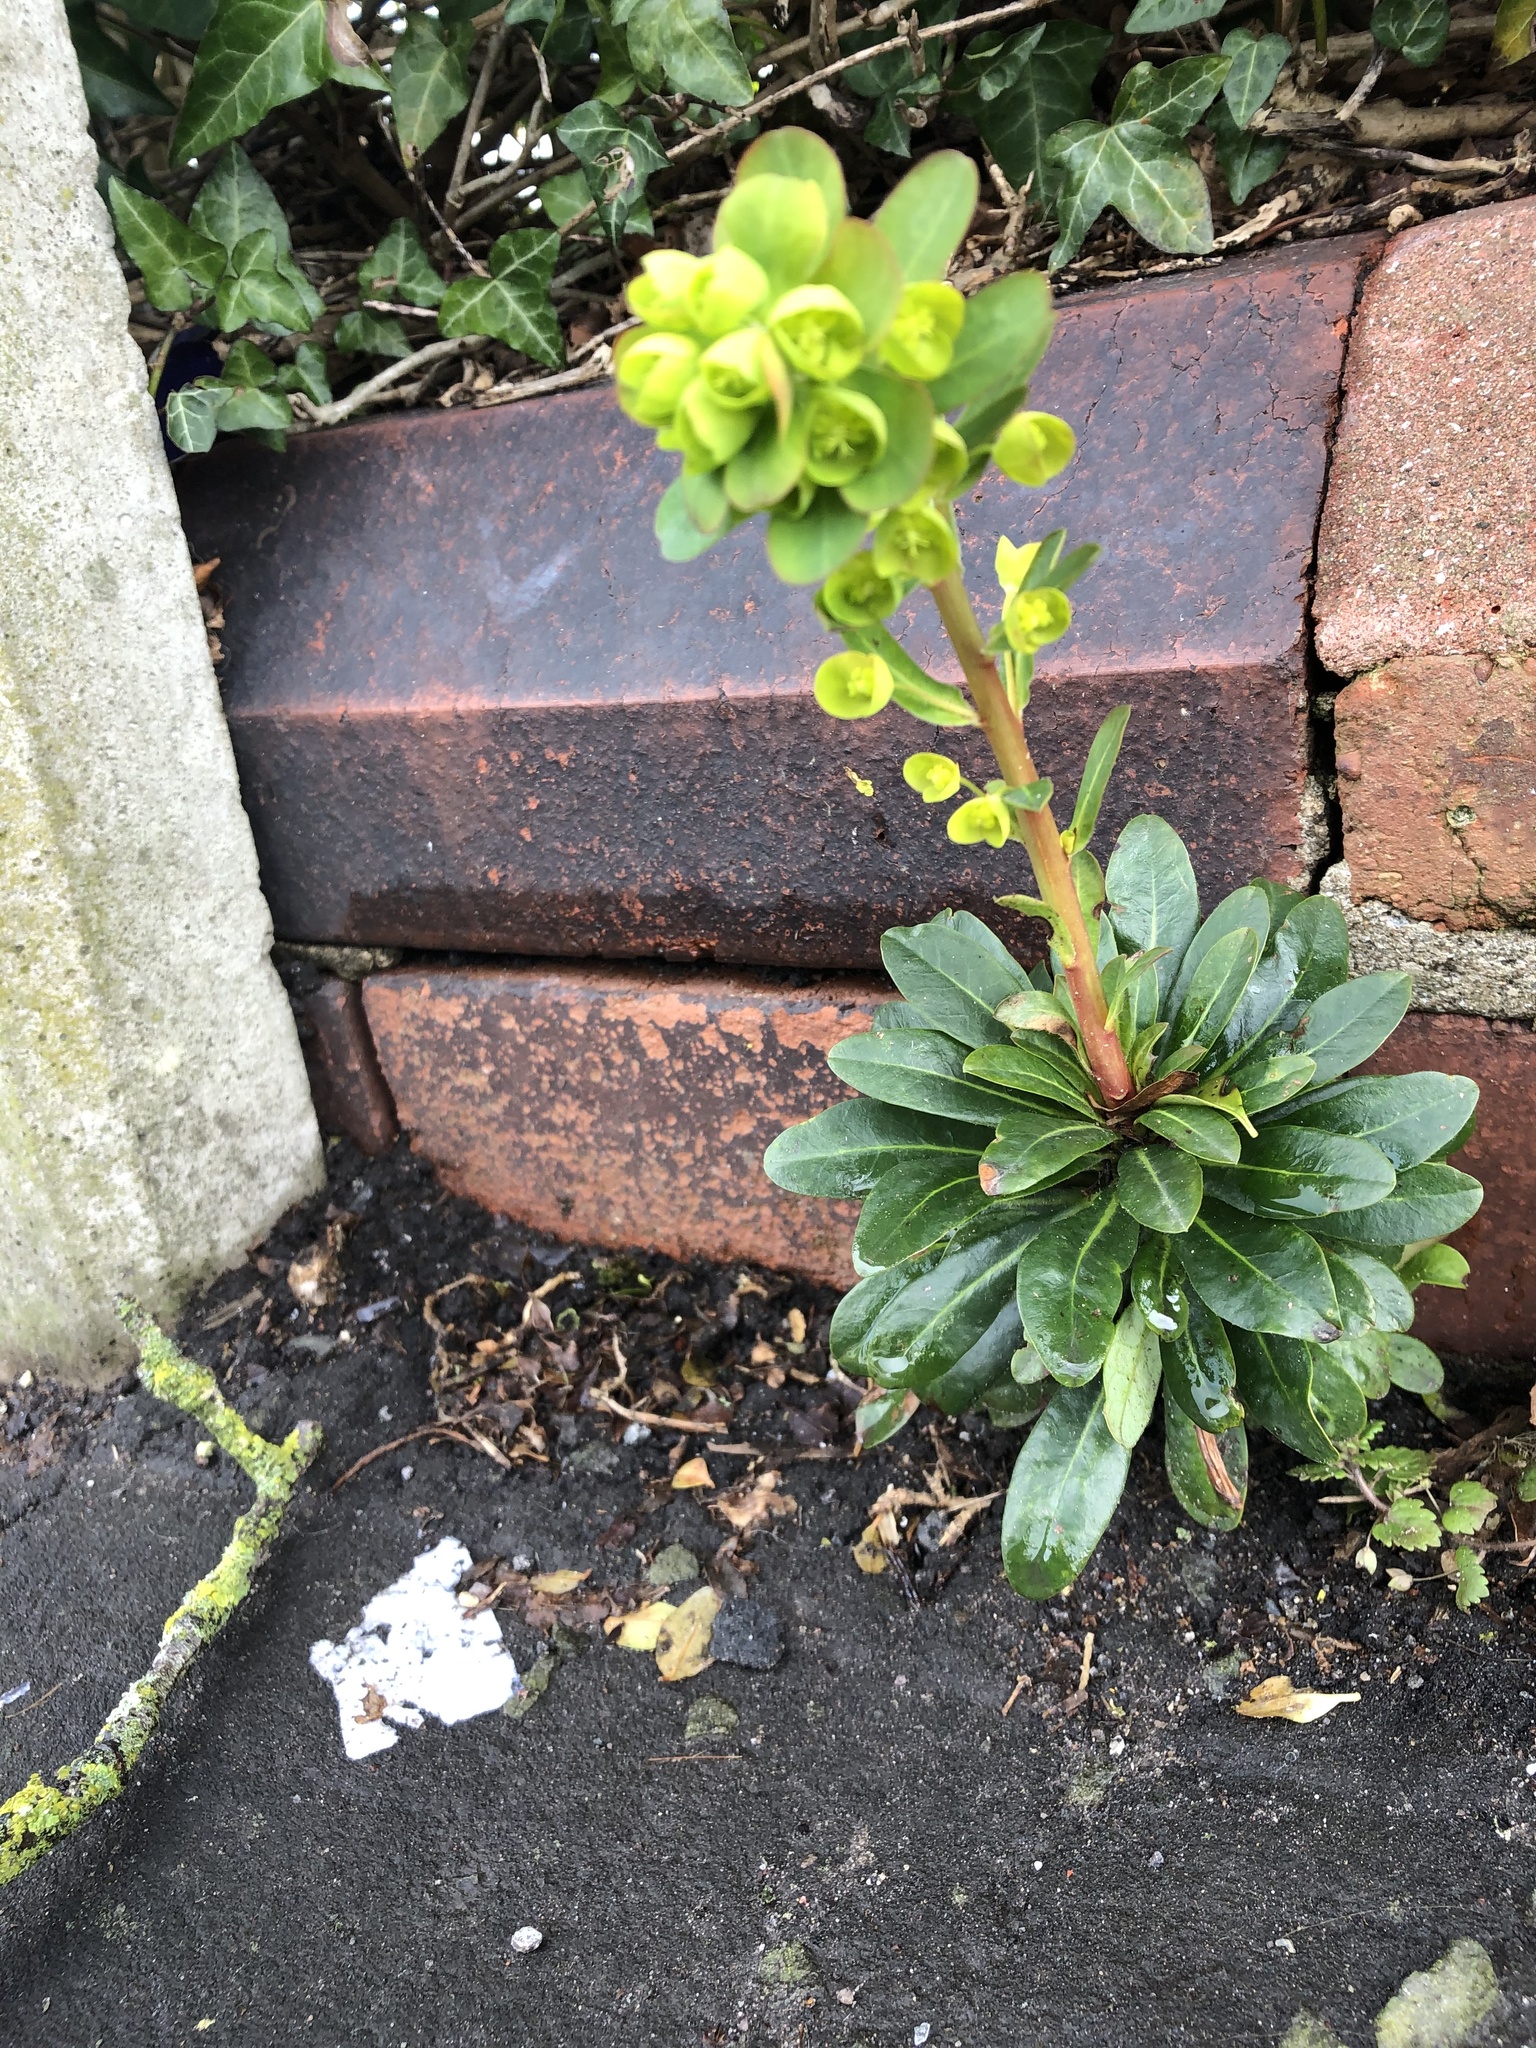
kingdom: Plantae
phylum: Tracheophyta
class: Magnoliopsida
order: Malpighiales
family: Euphorbiaceae
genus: Euphorbia
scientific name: Euphorbia amygdaloides
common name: Wood spurge
